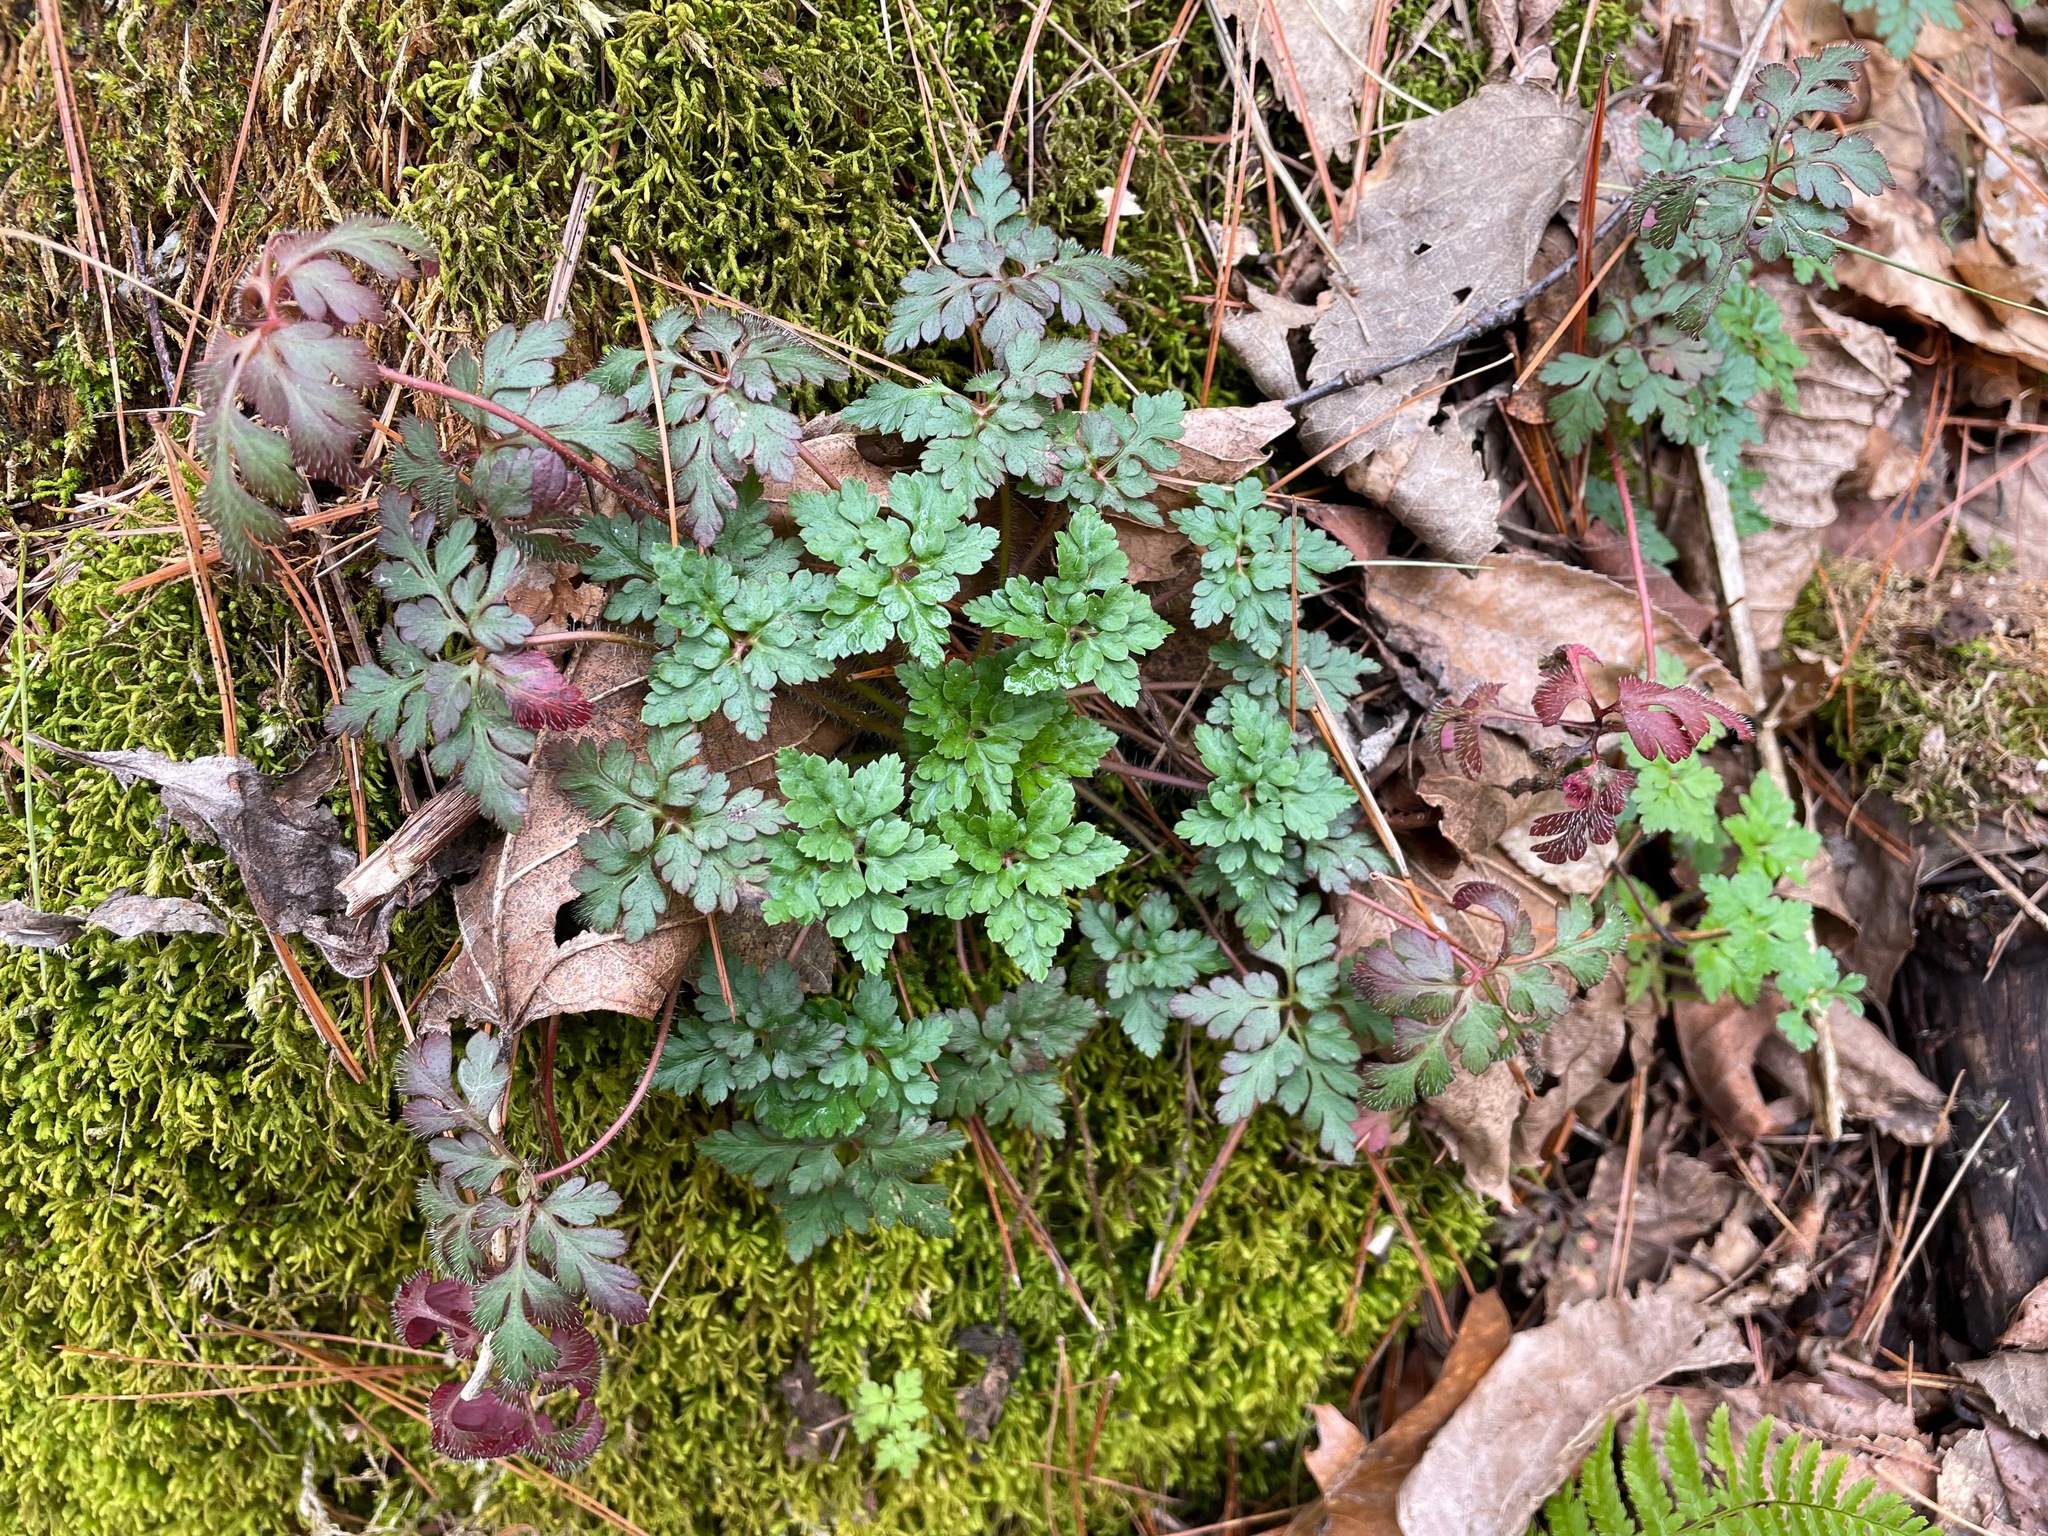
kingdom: Plantae
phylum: Tracheophyta
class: Magnoliopsida
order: Geraniales
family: Geraniaceae
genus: Geranium
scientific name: Geranium robertianum
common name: Herb-robert
